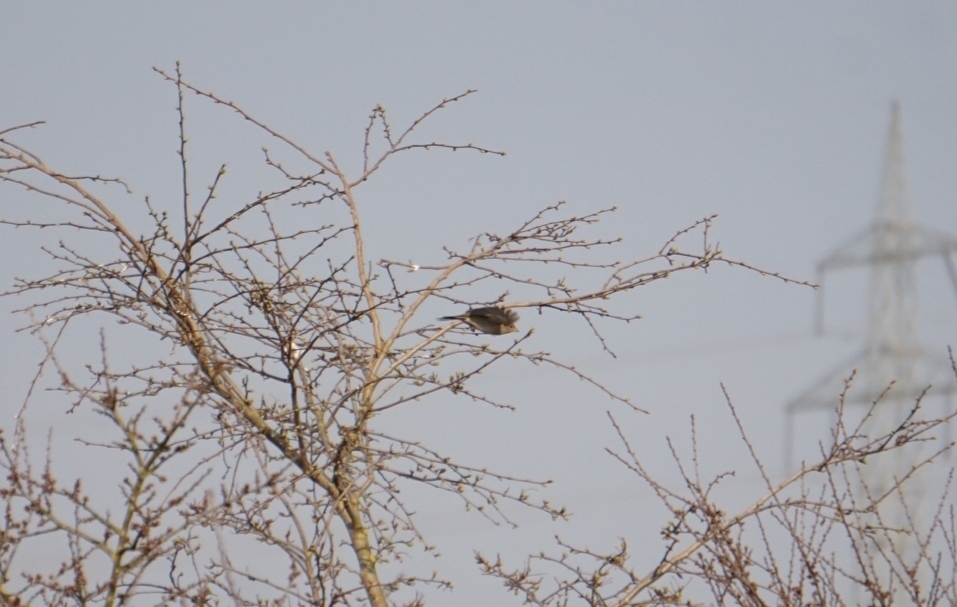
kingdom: Animalia
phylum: Chordata
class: Aves
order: Passeriformes
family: Fringillidae
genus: Fringilla
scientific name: Fringilla coelebs
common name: Common chaffinch
